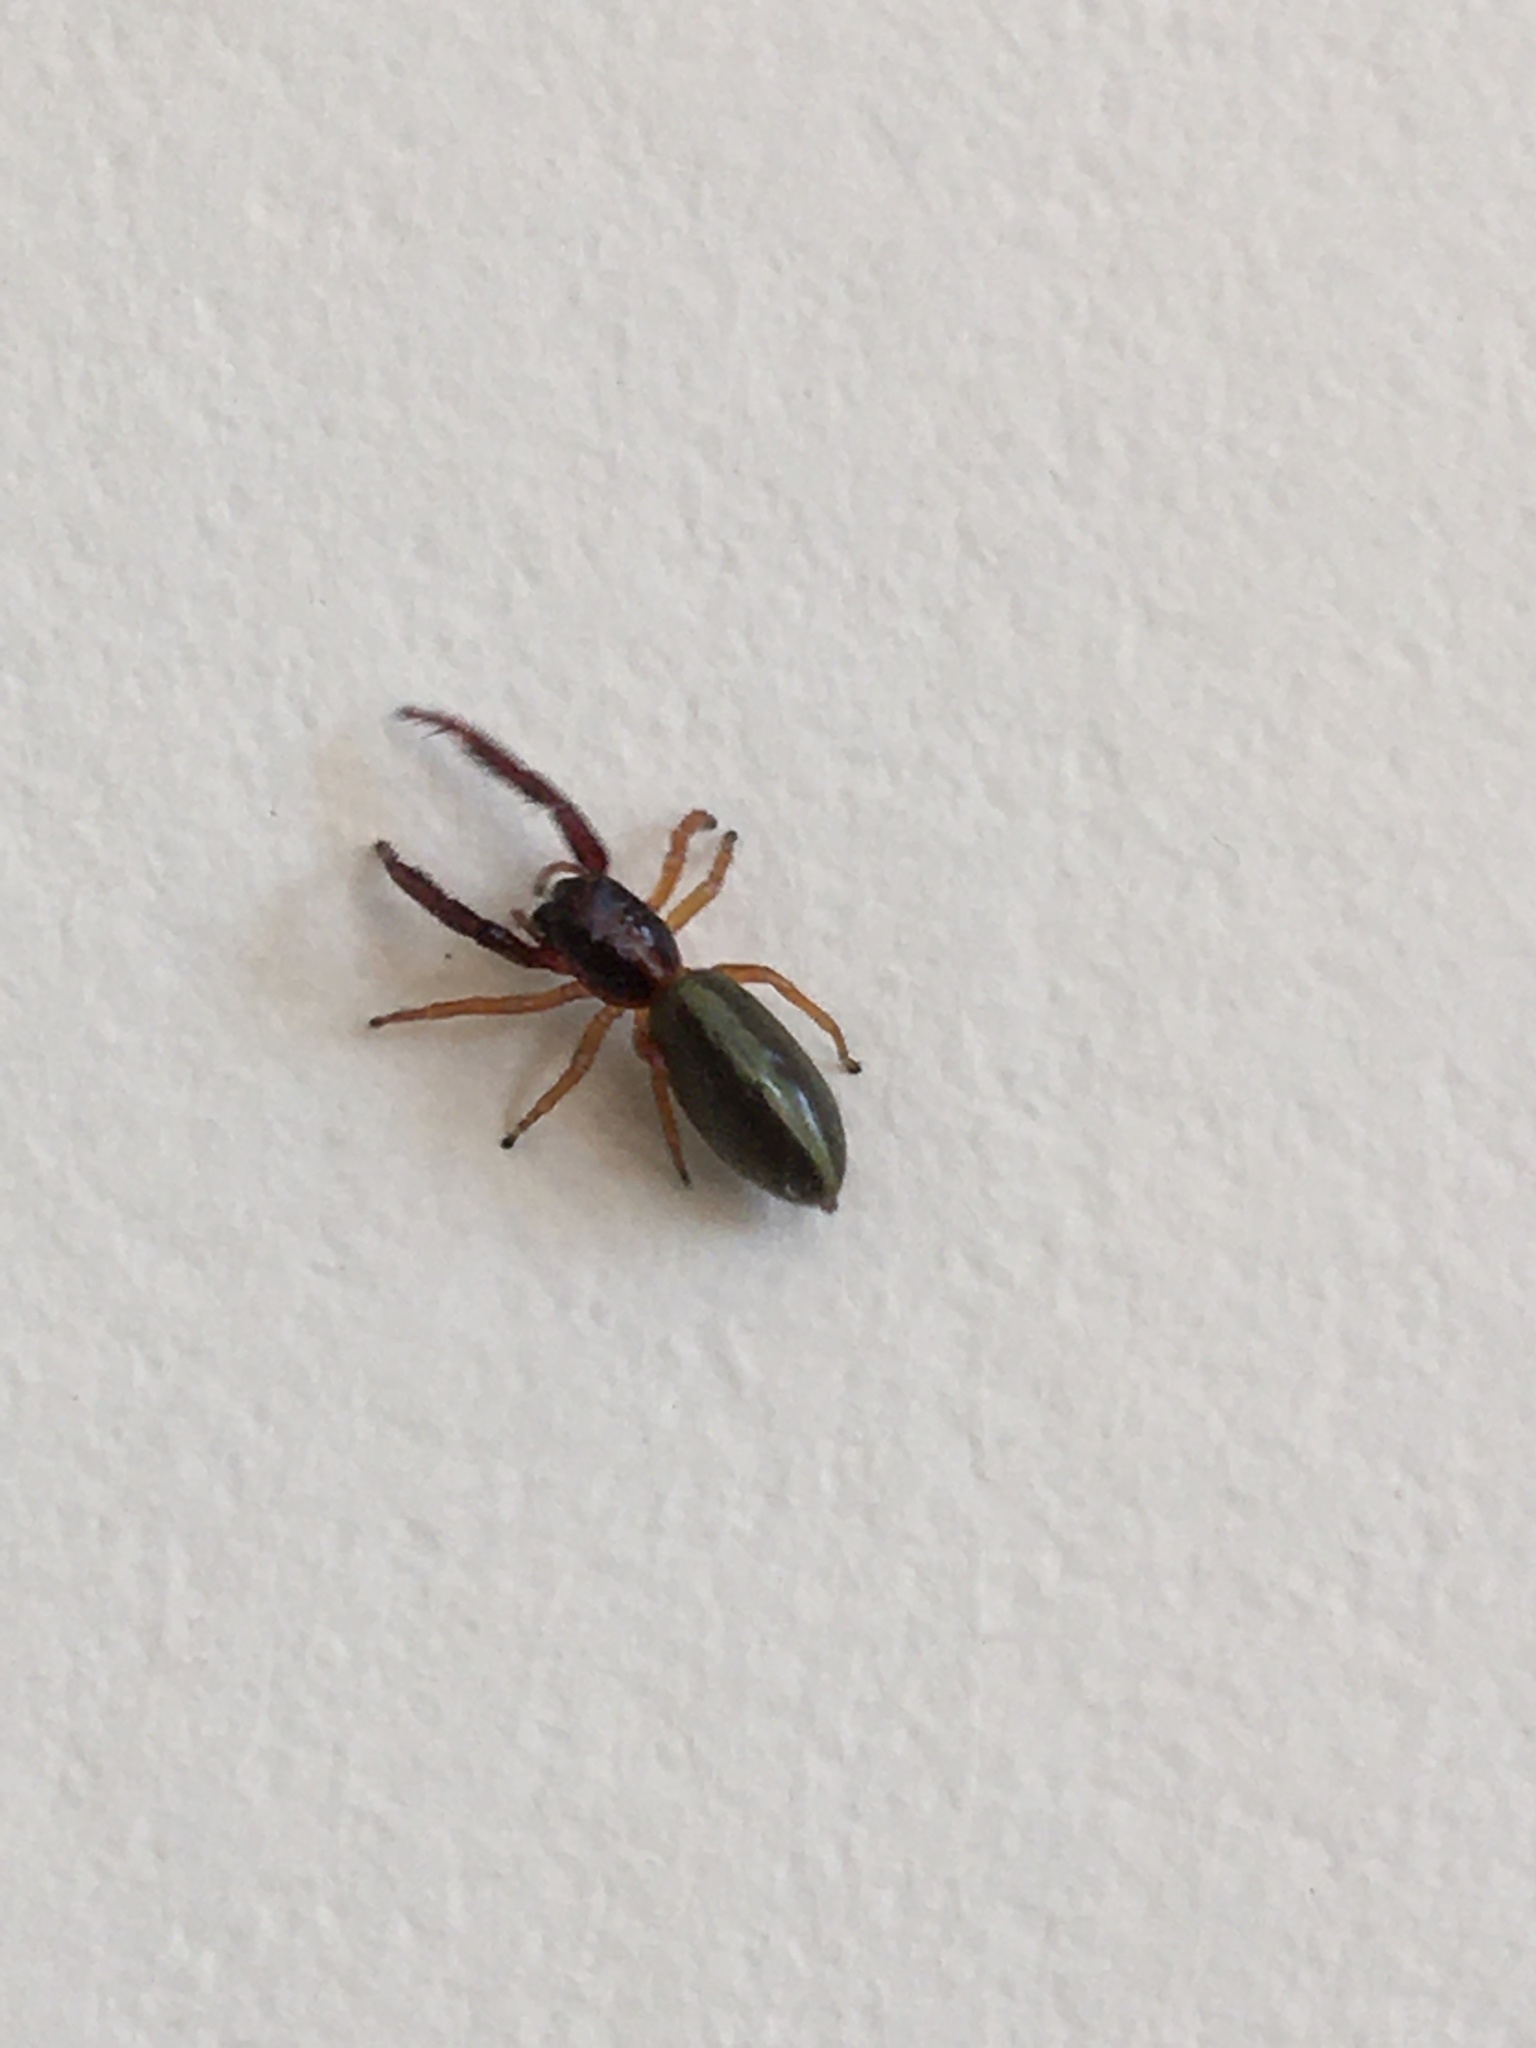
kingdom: Animalia
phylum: Arthropoda
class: Arachnida
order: Araneae
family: Salticidae
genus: Trite
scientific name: Trite planiceps
